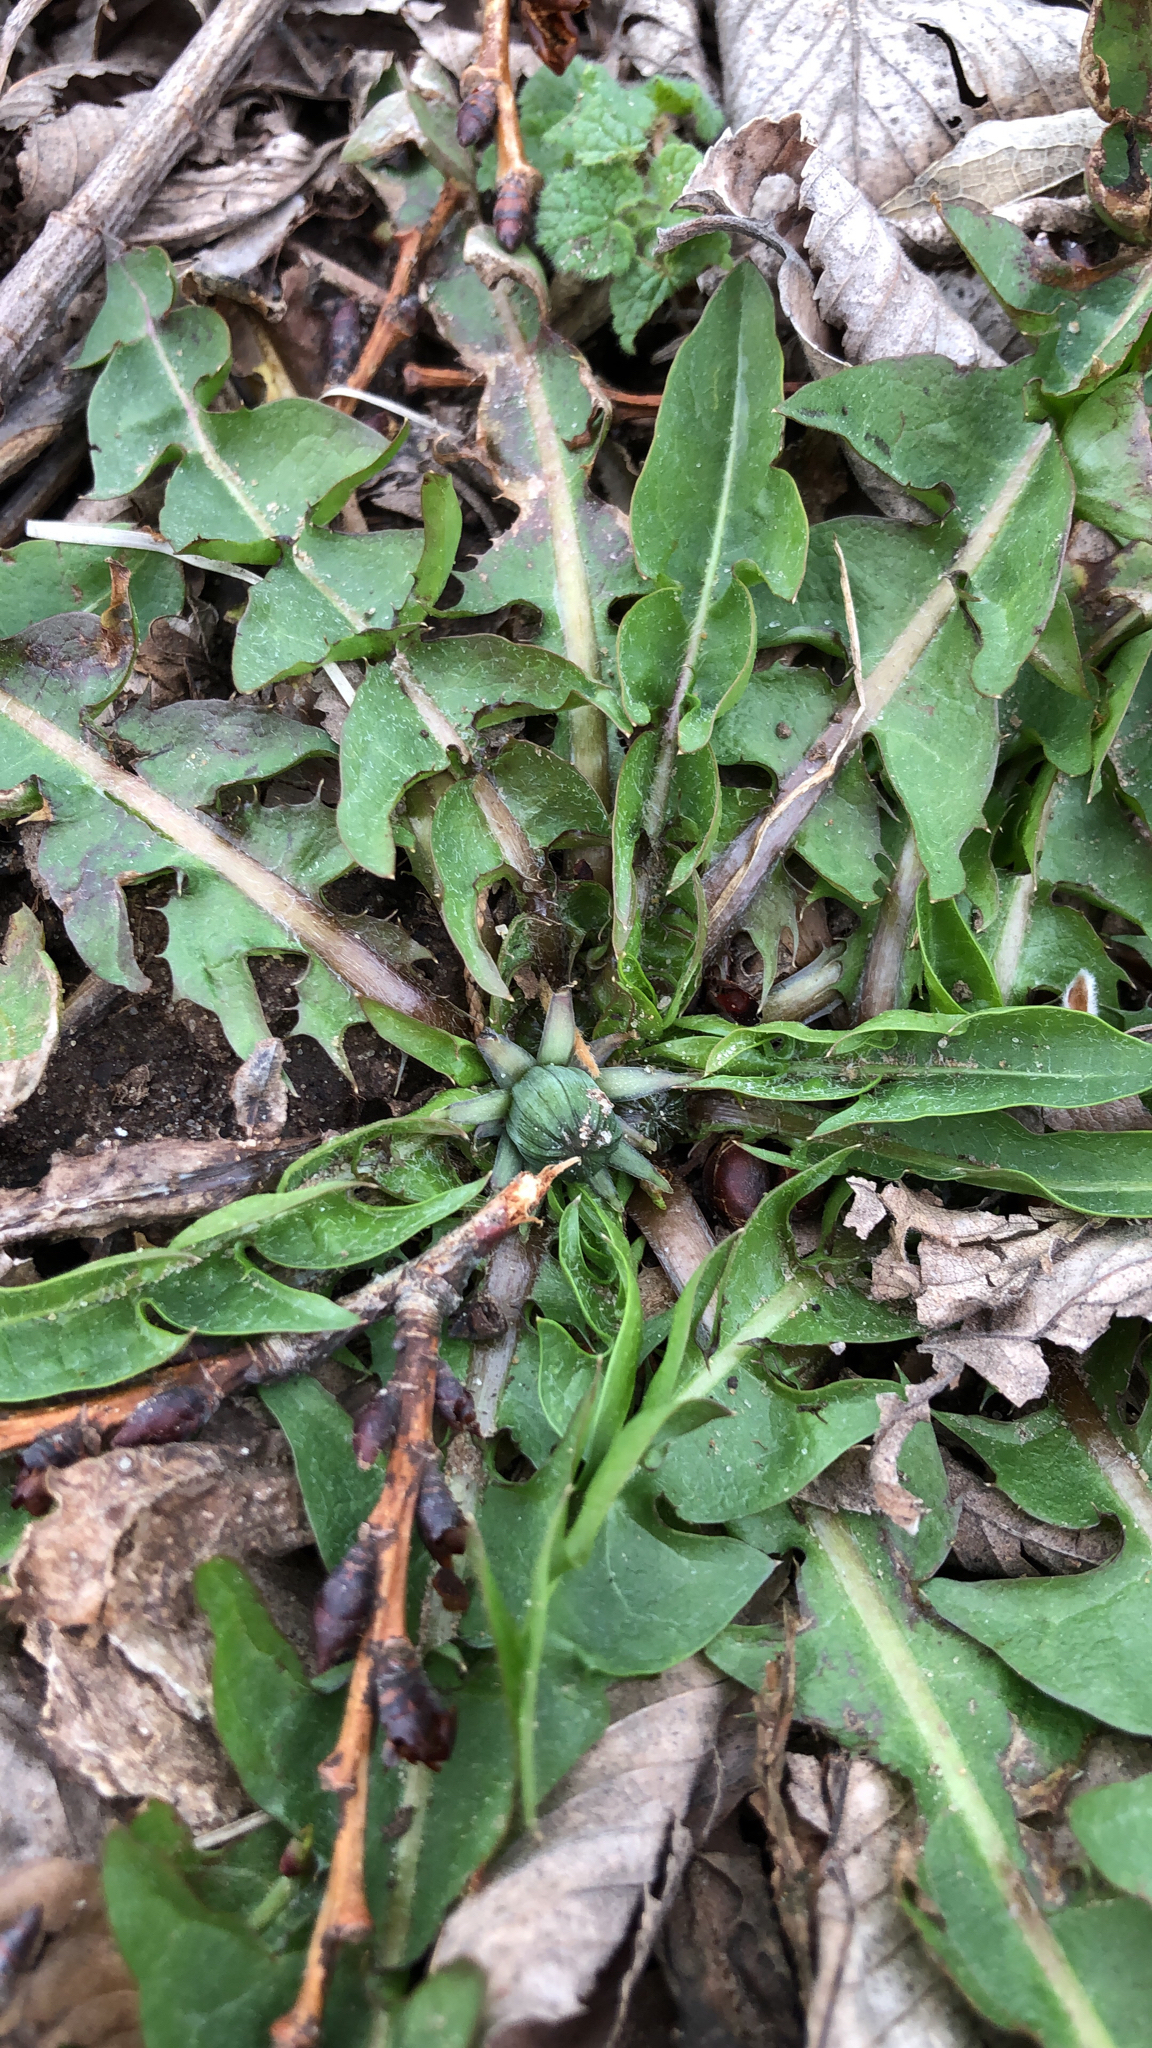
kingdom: Plantae
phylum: Tracheophyta
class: Magnoliopsida
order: Asterales
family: Asteraceae
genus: Taraxacum
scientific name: Taraxacum
